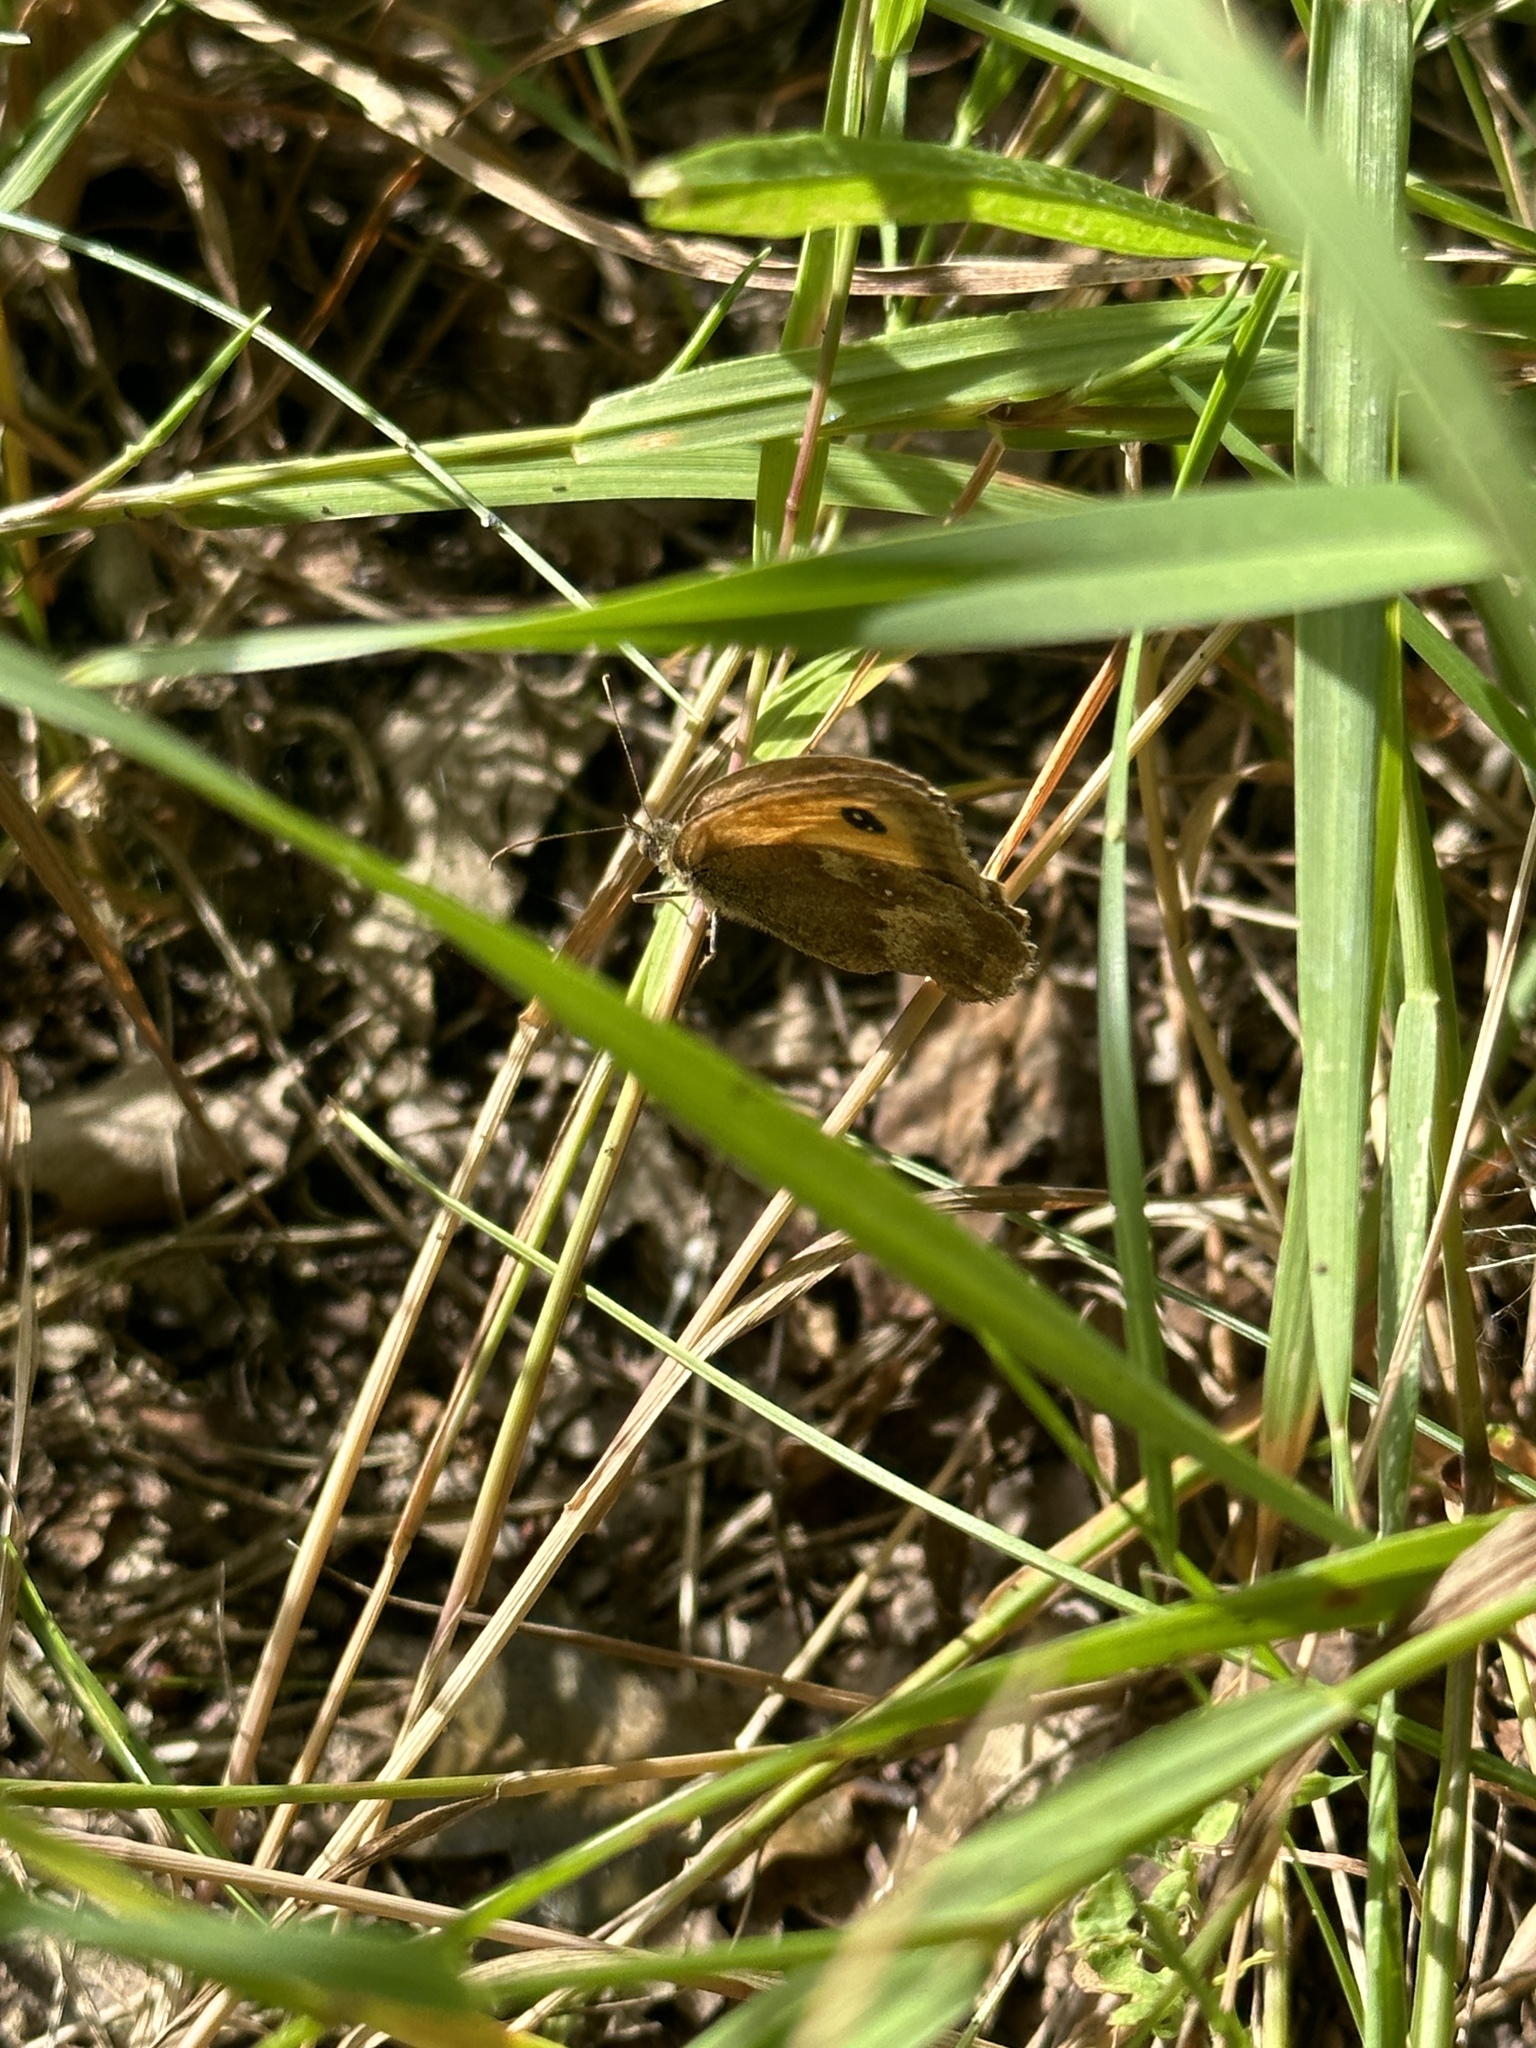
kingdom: Animalia
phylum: Arthropoda
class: Insecta
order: Lepidoptera
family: Nymphalidae
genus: Pyronia
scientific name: Pyronia tithonus
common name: Gatekeeper
